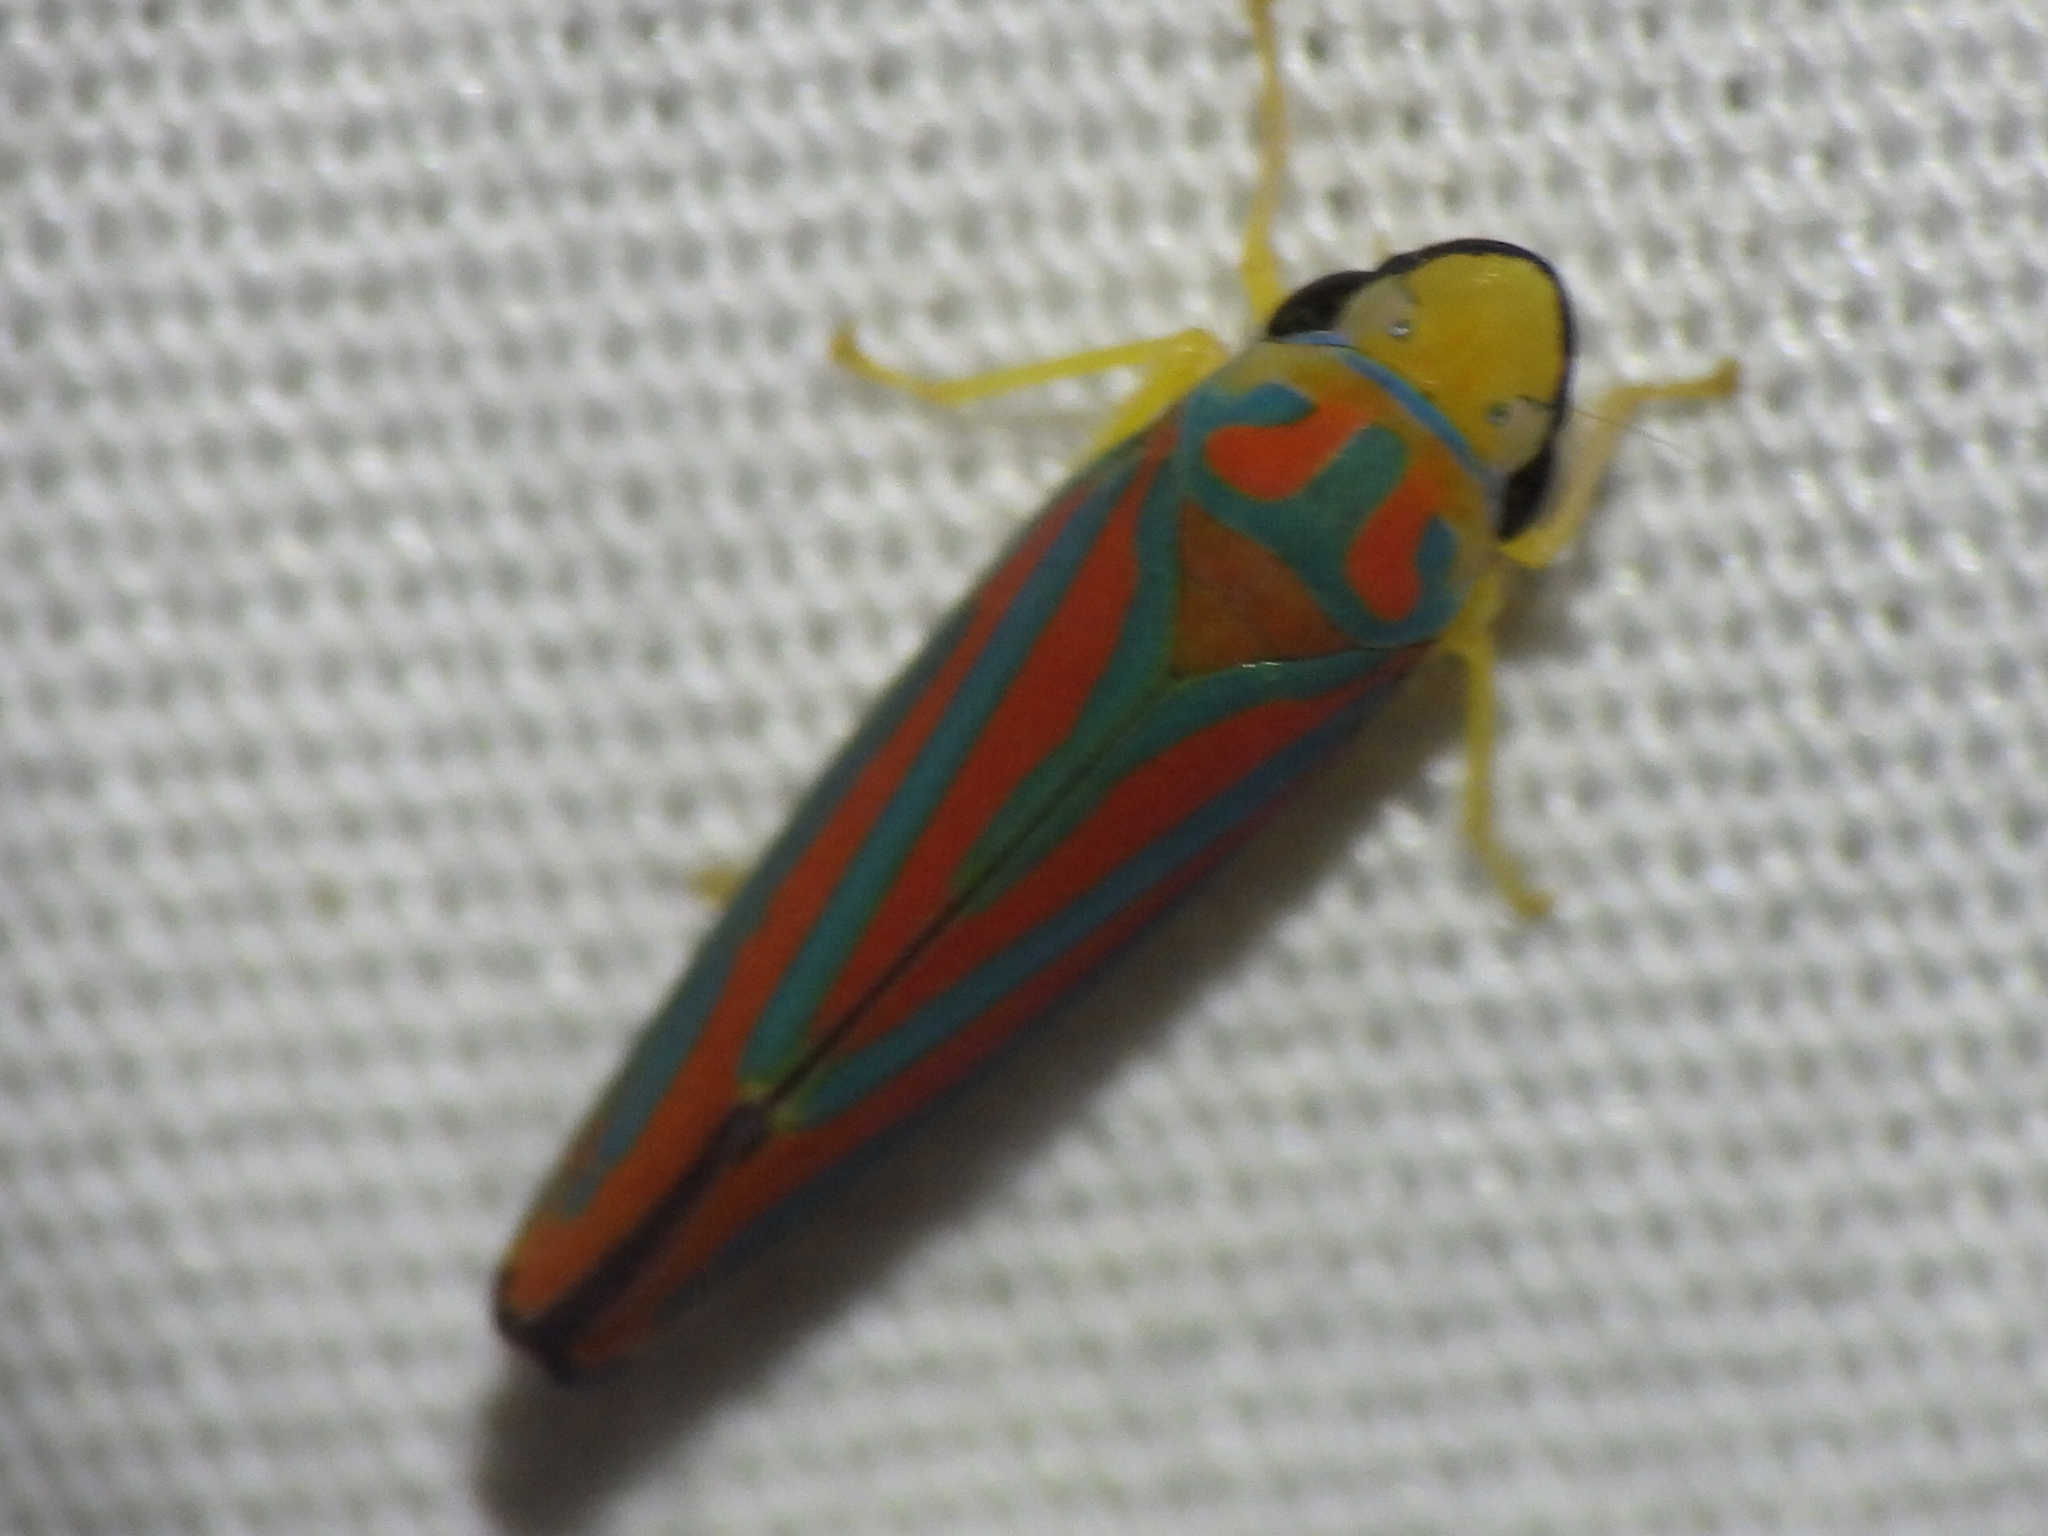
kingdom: Animalia
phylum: Arthropoda
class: Insecta
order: Hemiptera
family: Cicadellidae
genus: Graphocephala
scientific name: Graphocephala coccinea
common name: Candy-striped leafhopper
